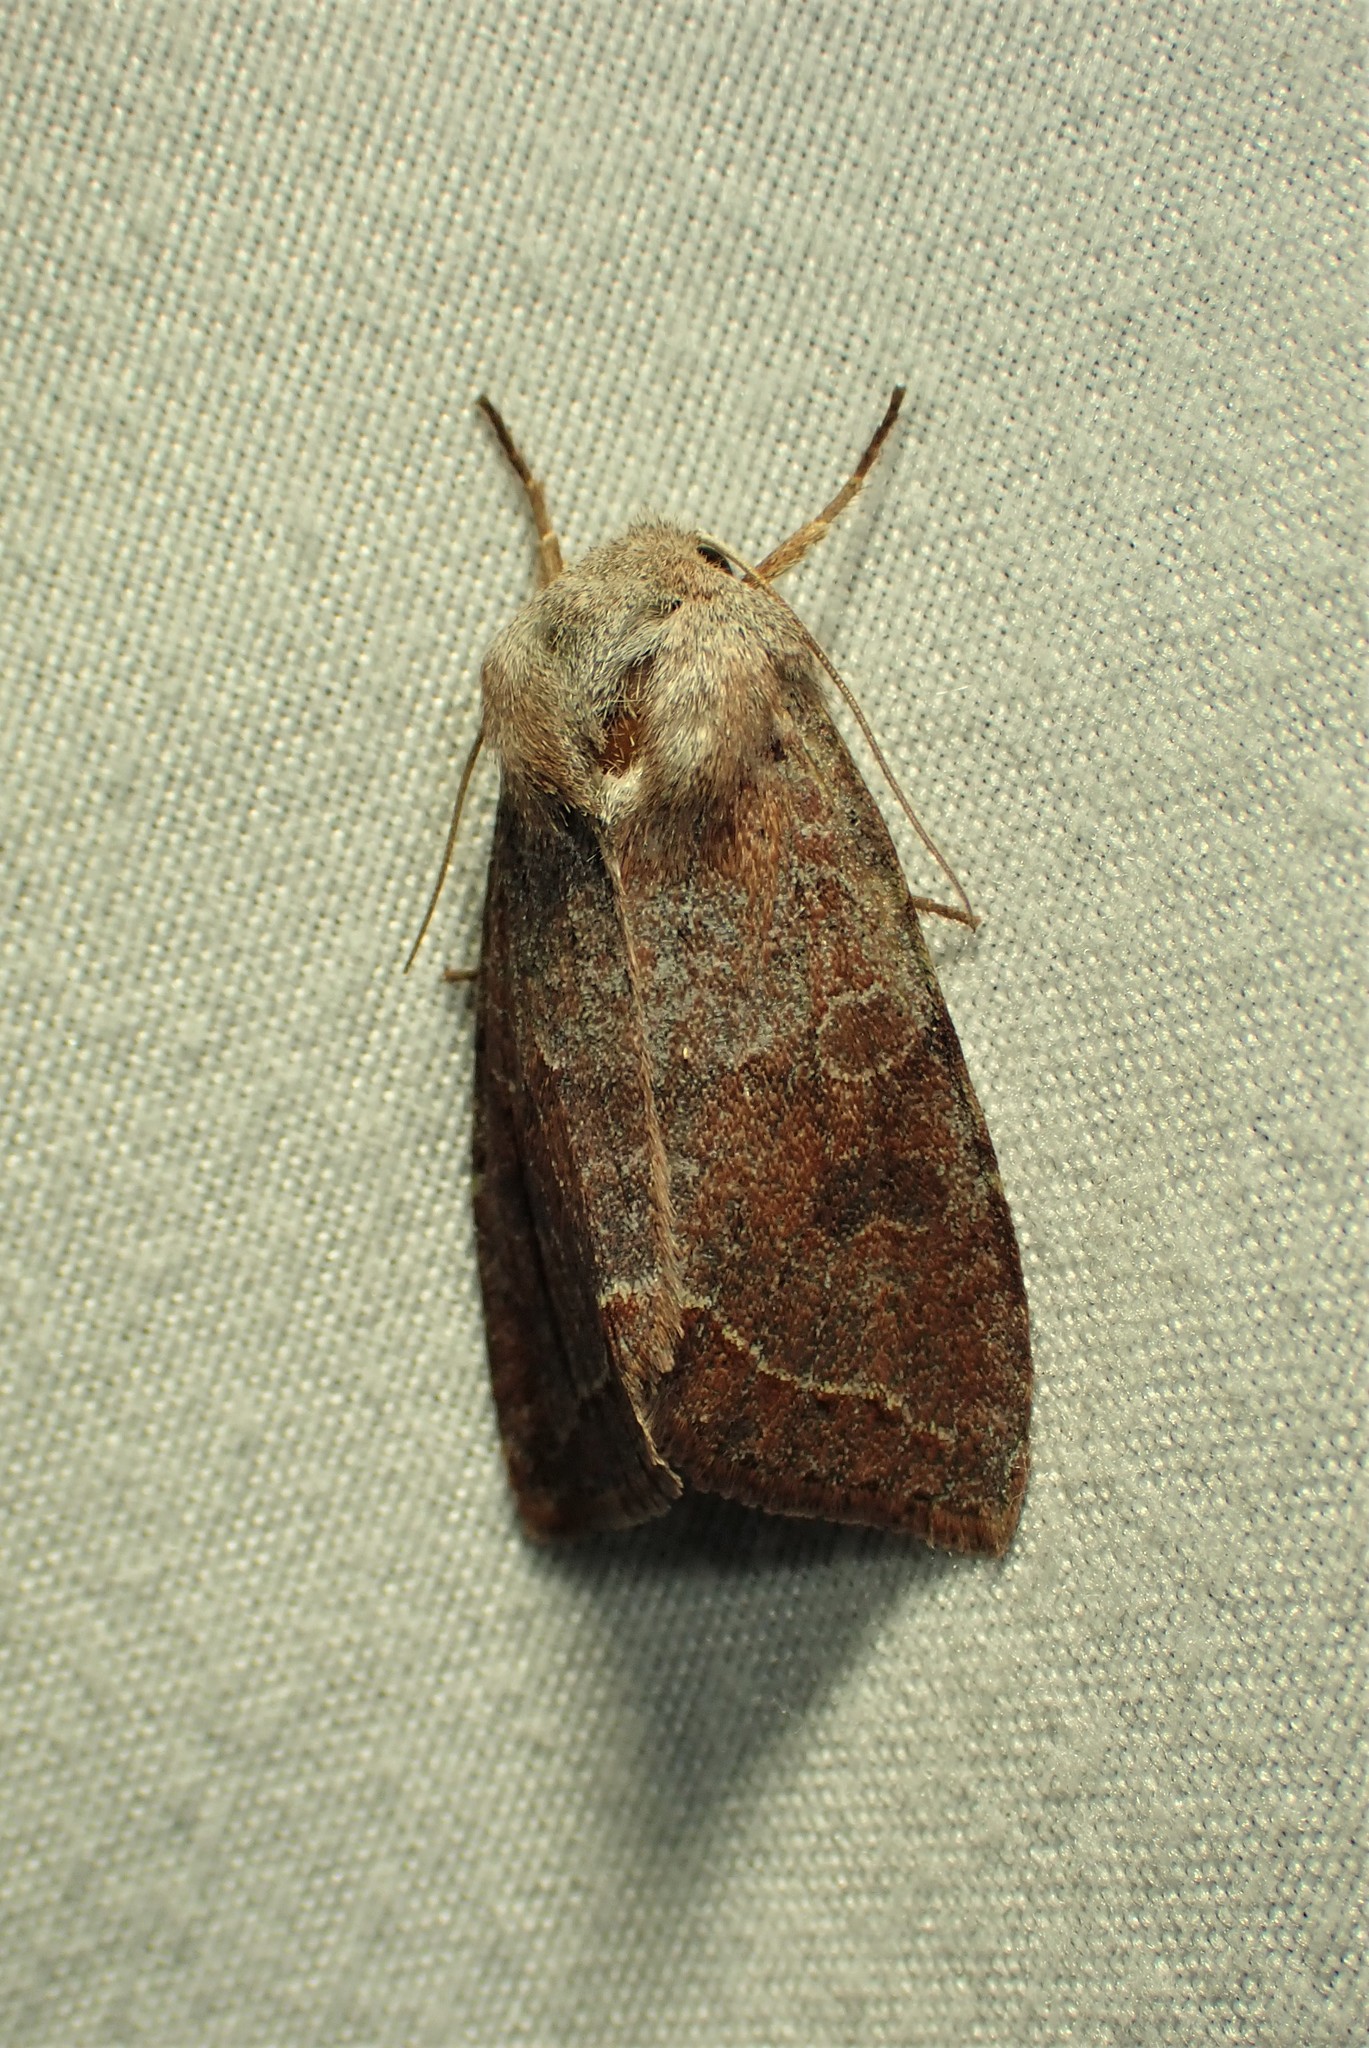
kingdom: Animalia
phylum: Arthropoda
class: Insecta
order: Lepidoptera
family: Noctuidae
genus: Orthosia
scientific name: Orthosia revicta
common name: Rusty whitesided caterpillar
